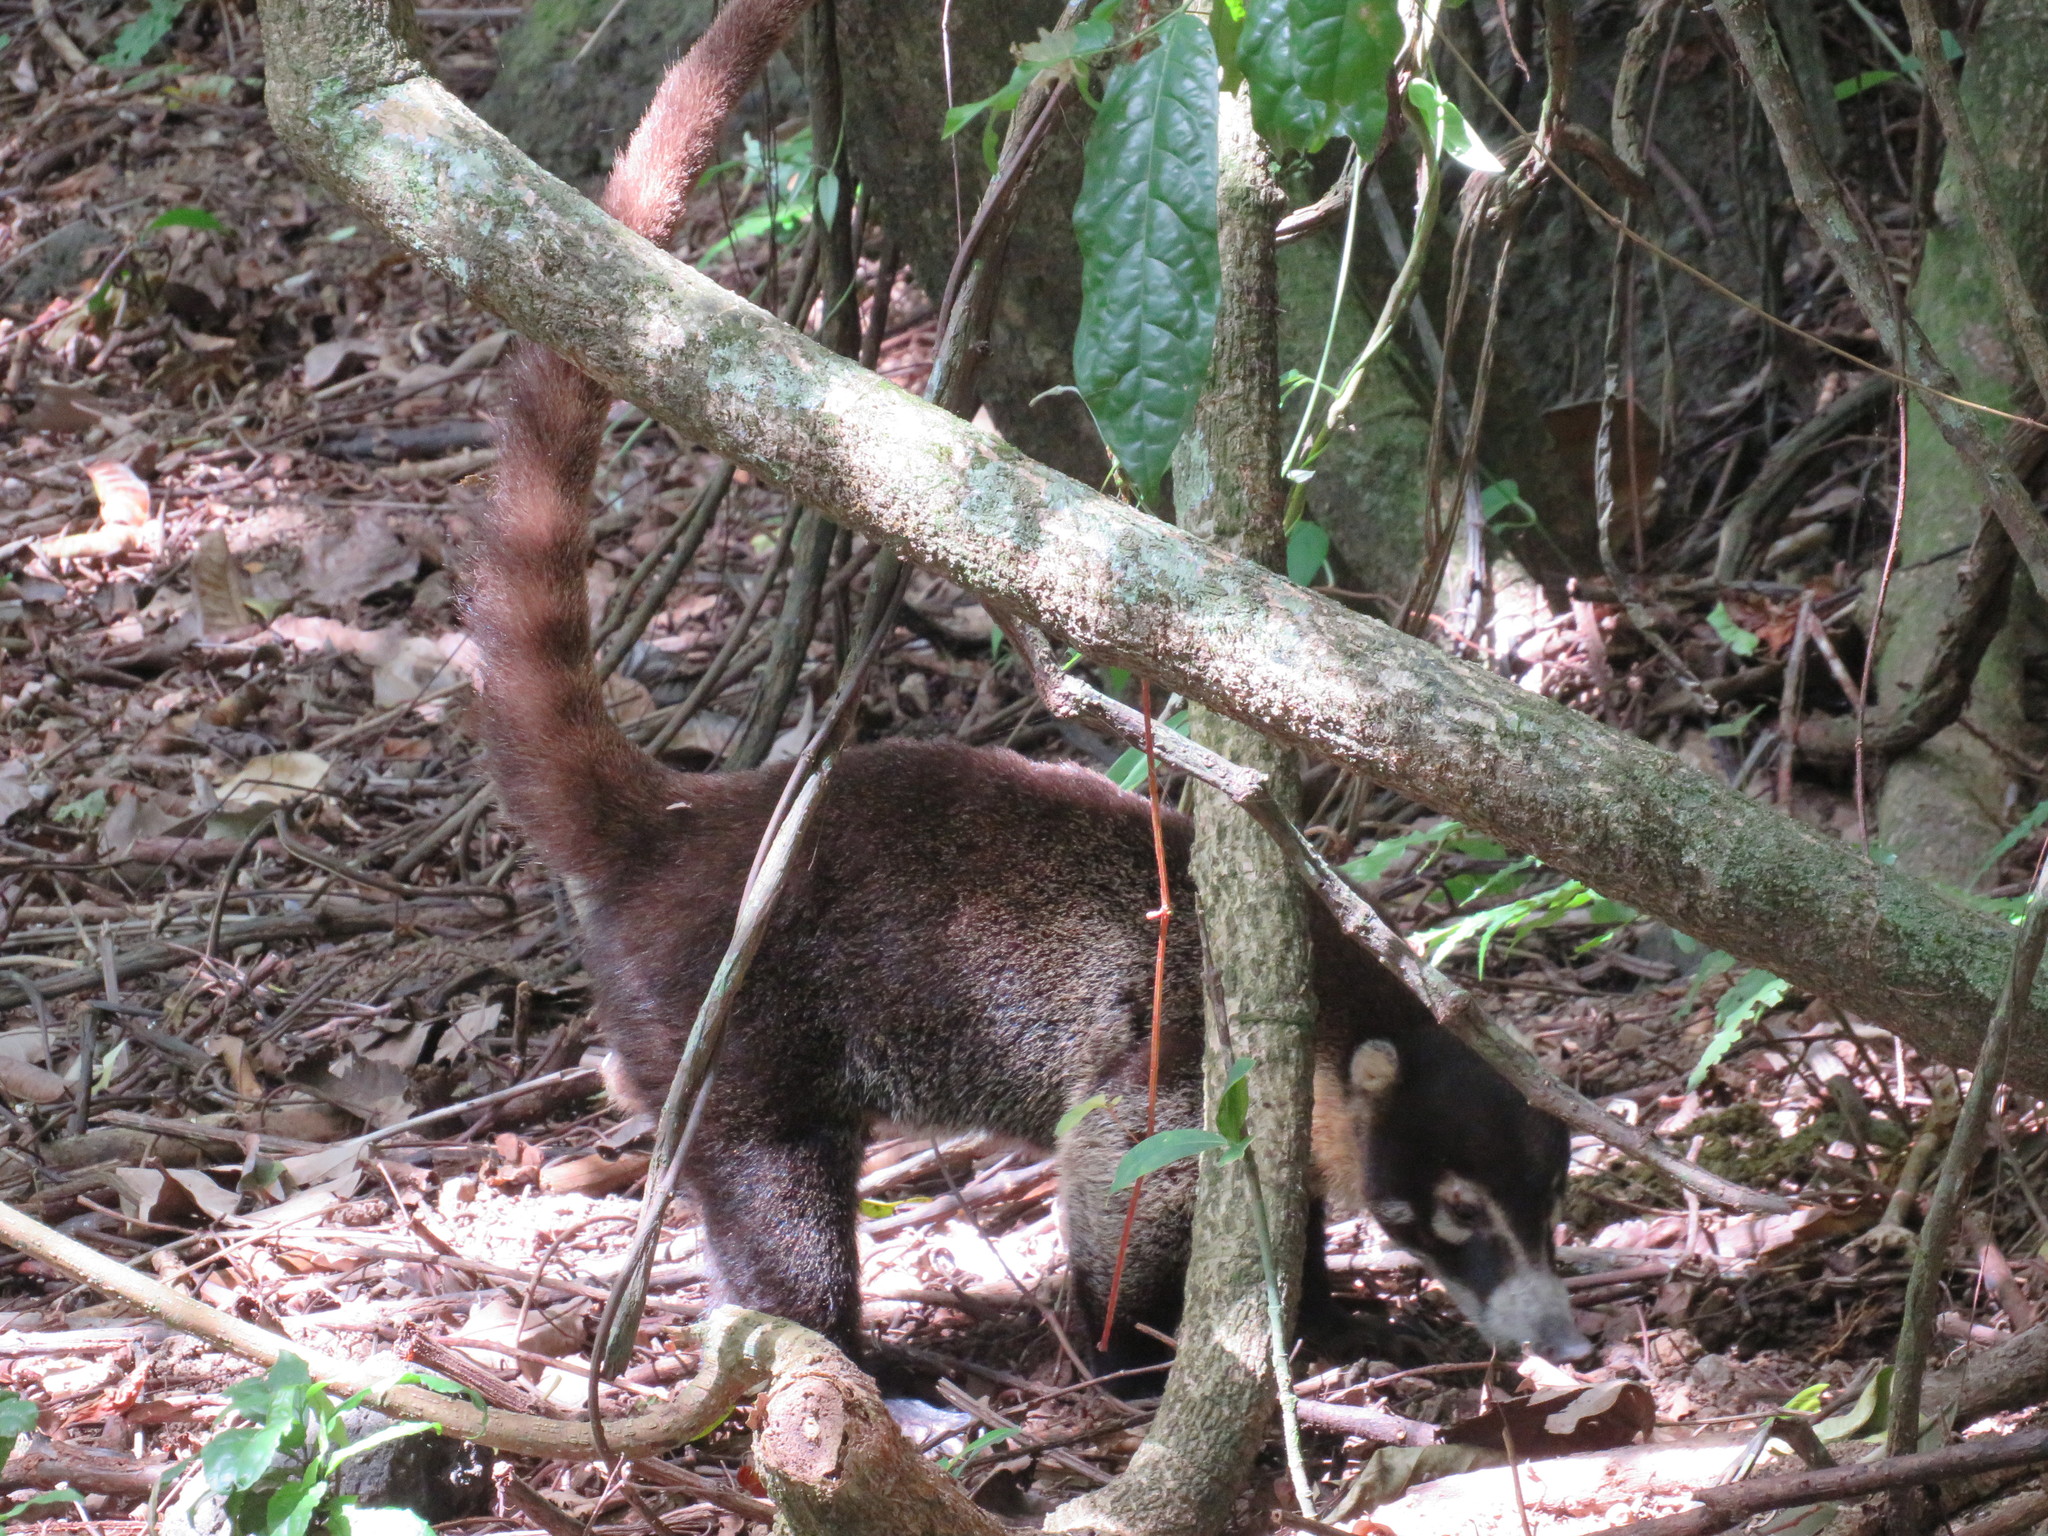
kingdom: Animalia
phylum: Chordata
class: Mammalia
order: Carnivora
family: Procyonidae
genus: Nasua
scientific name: Nasua narica
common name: White-nosed coati
